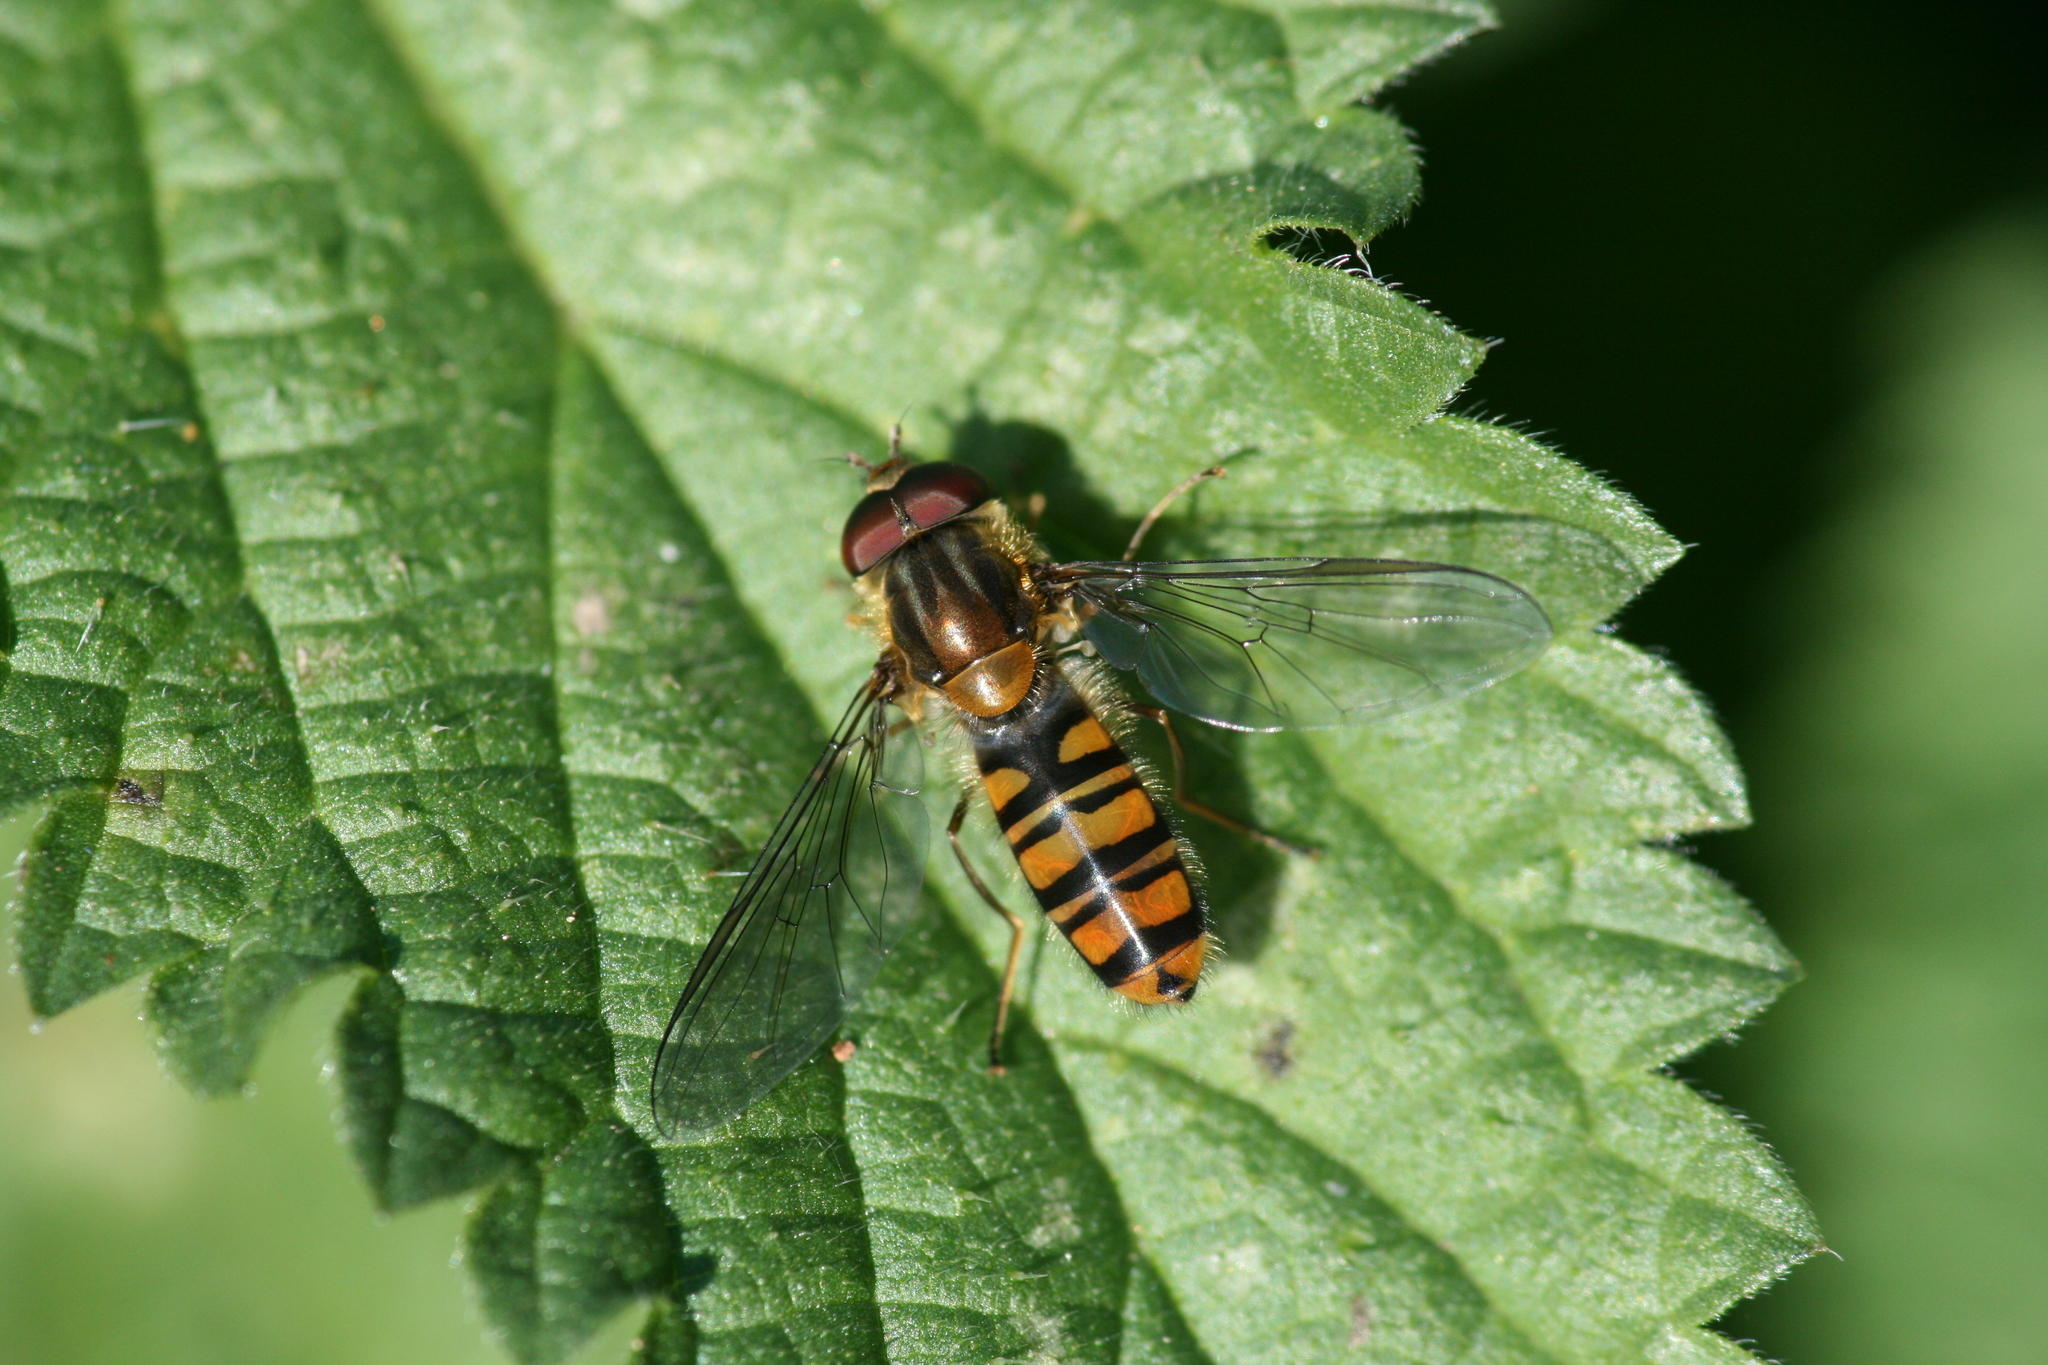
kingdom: Animalia
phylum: Arthropoda
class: Insecta
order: Diptera
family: Syrphidae
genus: Episyrphus
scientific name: Episyrphus balteatus
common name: Marmalade hoverfly
